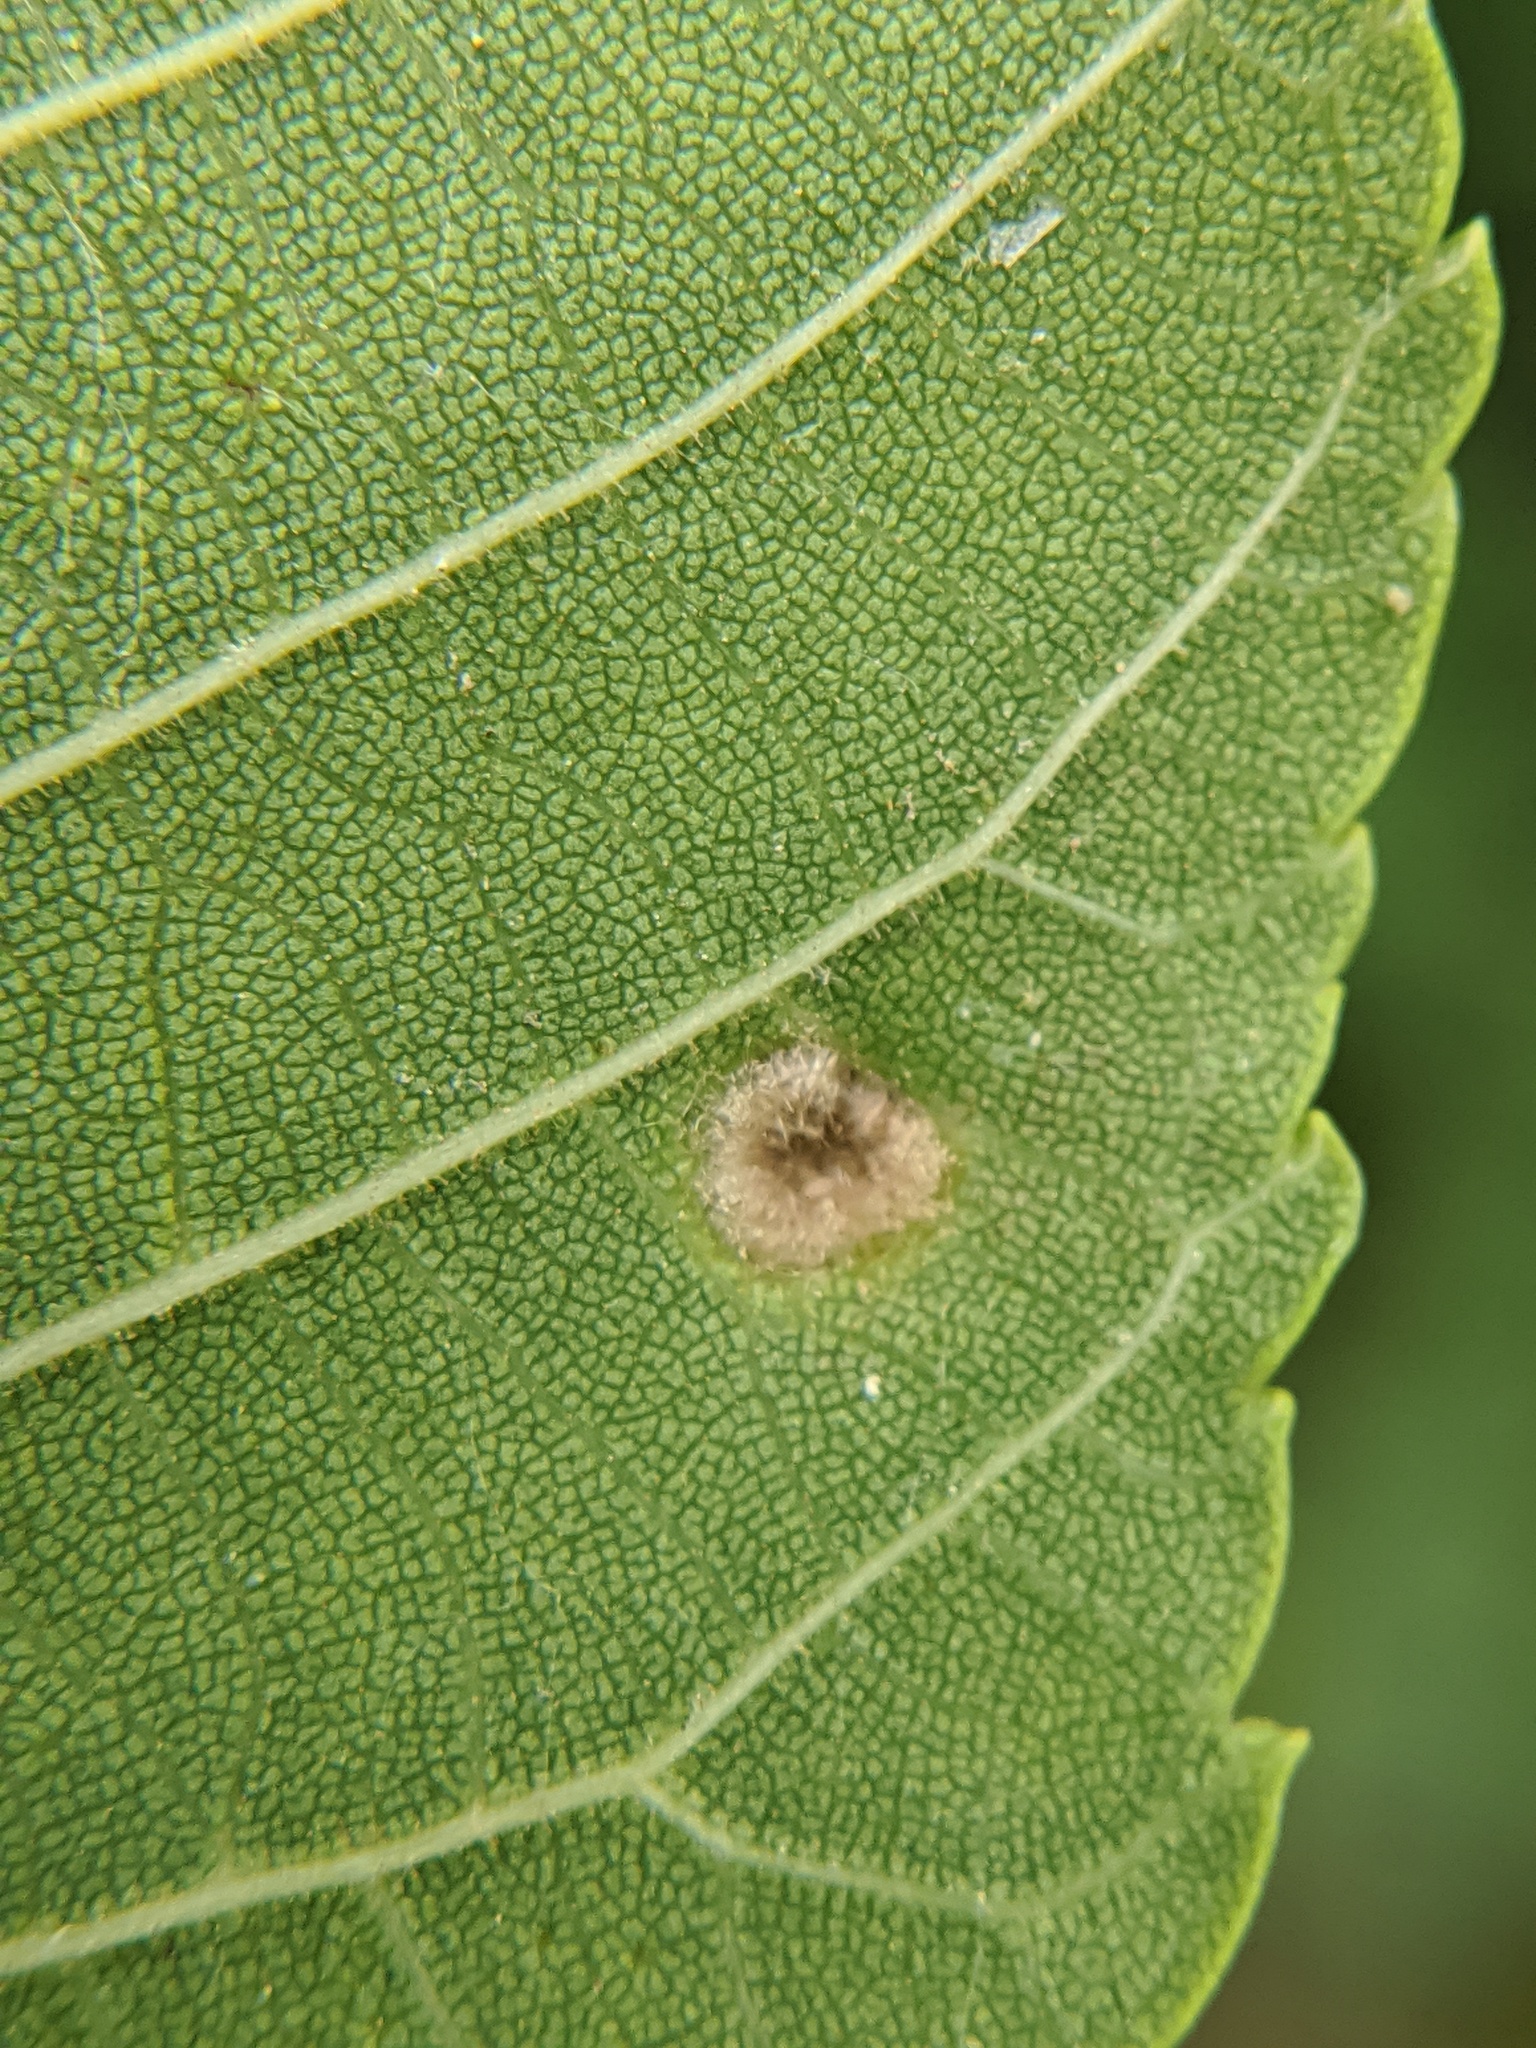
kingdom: Animalia
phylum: Arthropoda
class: Arachnida
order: Trombidiformes
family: Eriophyidae
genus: Aceria
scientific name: Aceria brachytarsus
